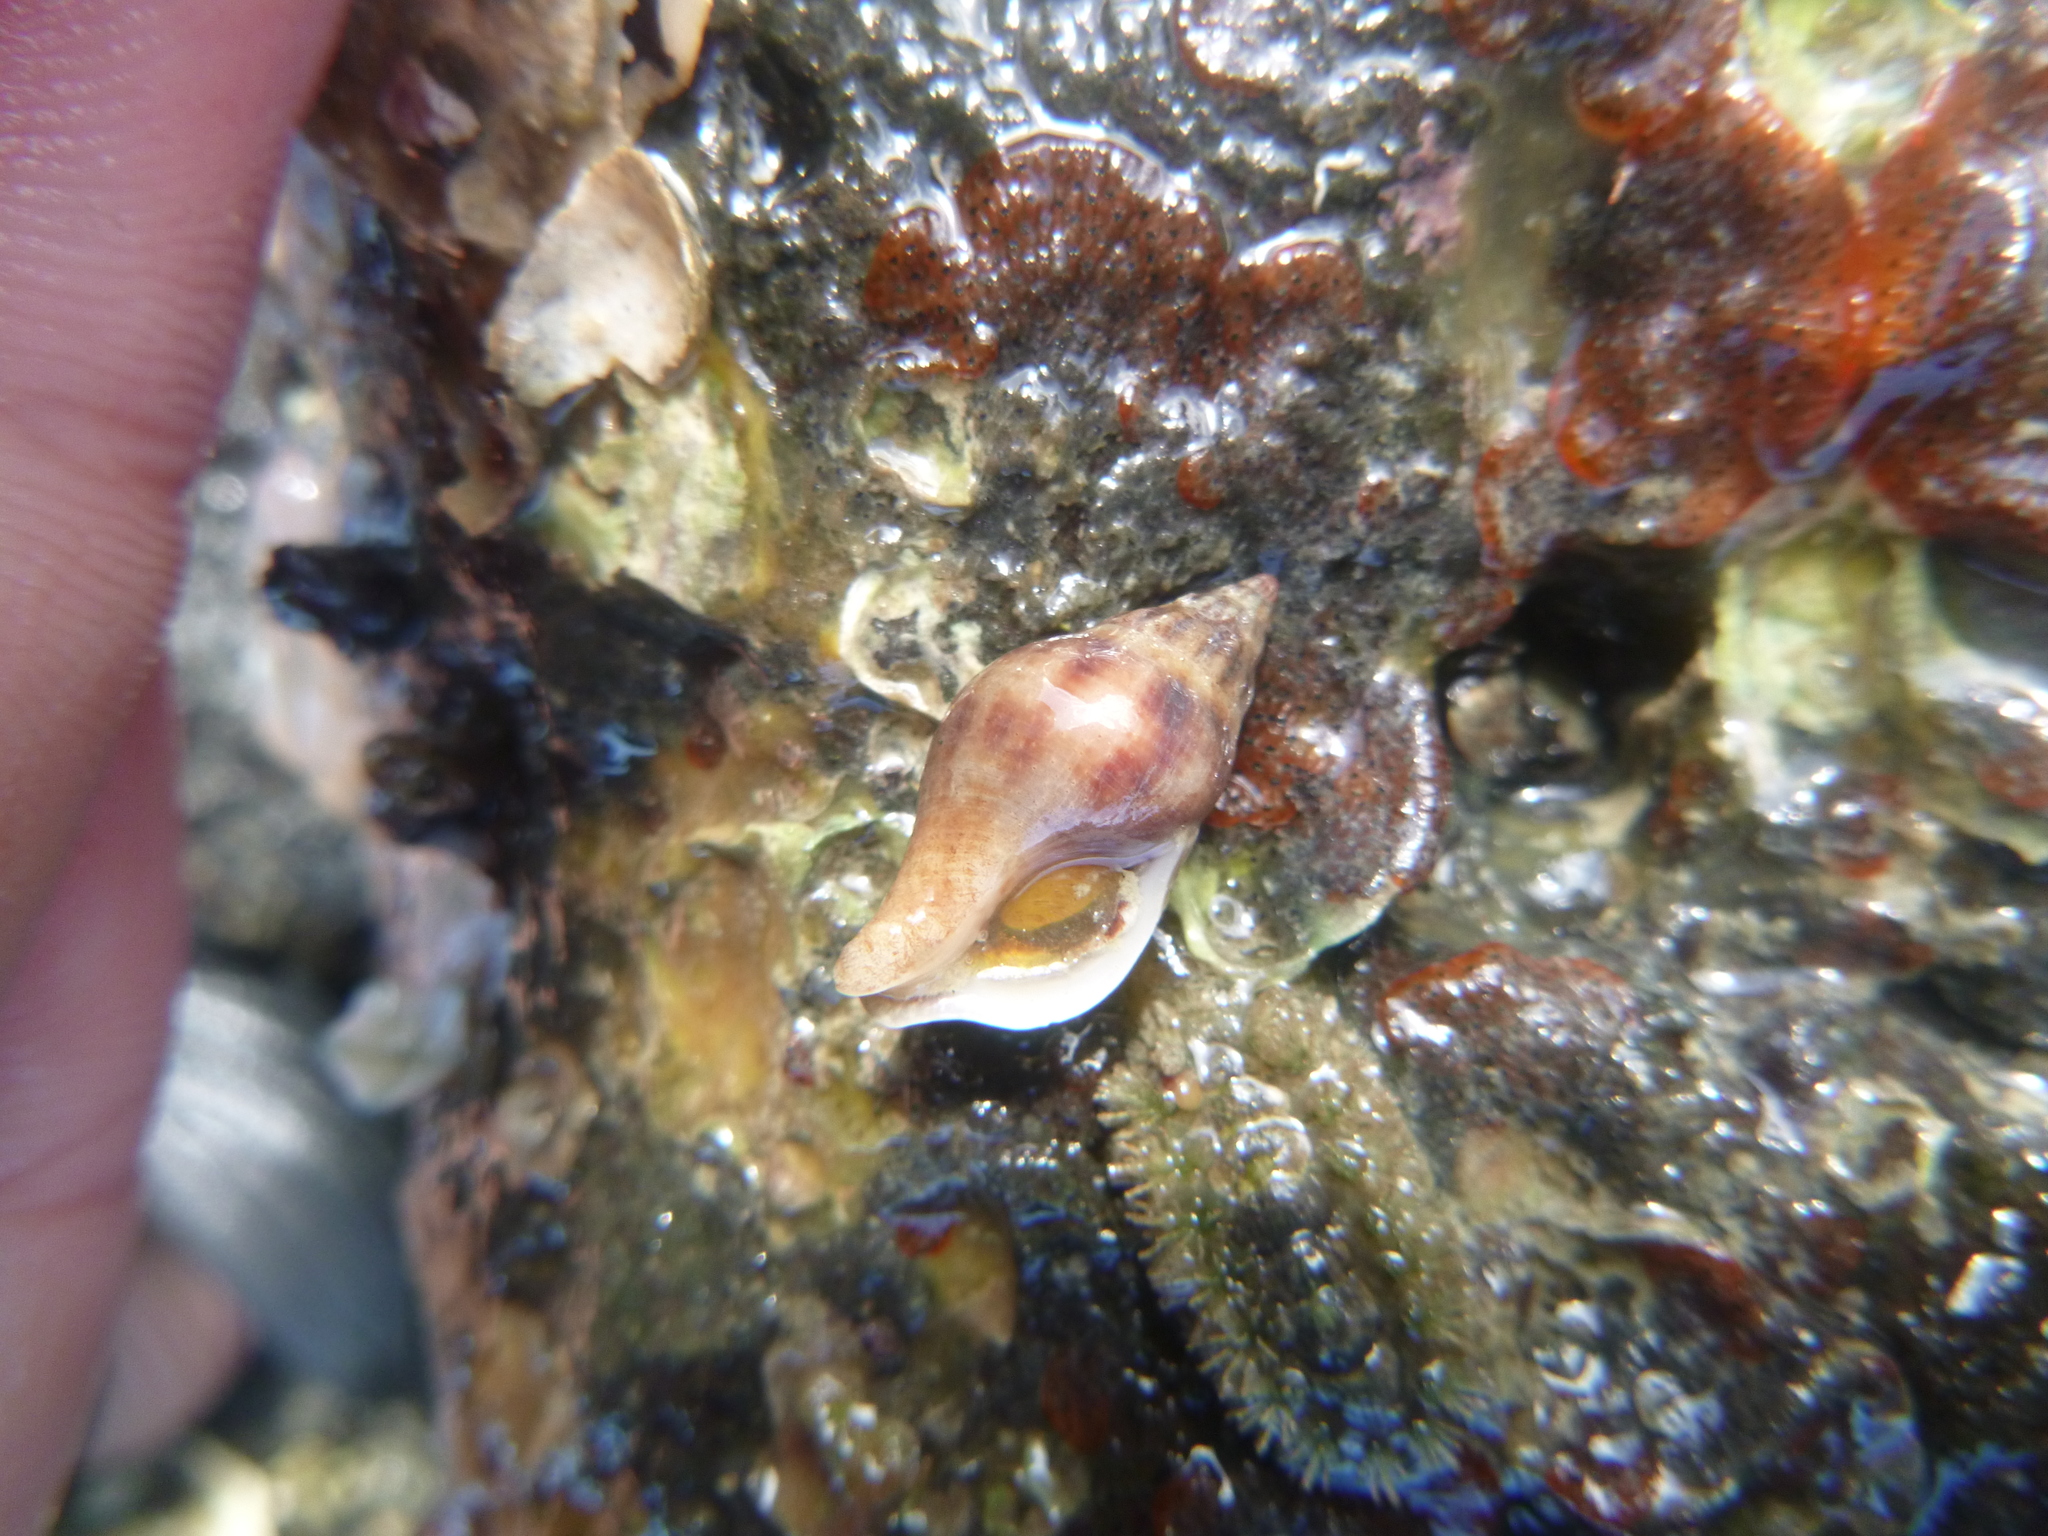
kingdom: Animalia
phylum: Mollusca
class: Gastropoda
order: Neogastropoda
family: Tudiclidae
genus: Buccinulum
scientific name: Buccinulum vittatum
